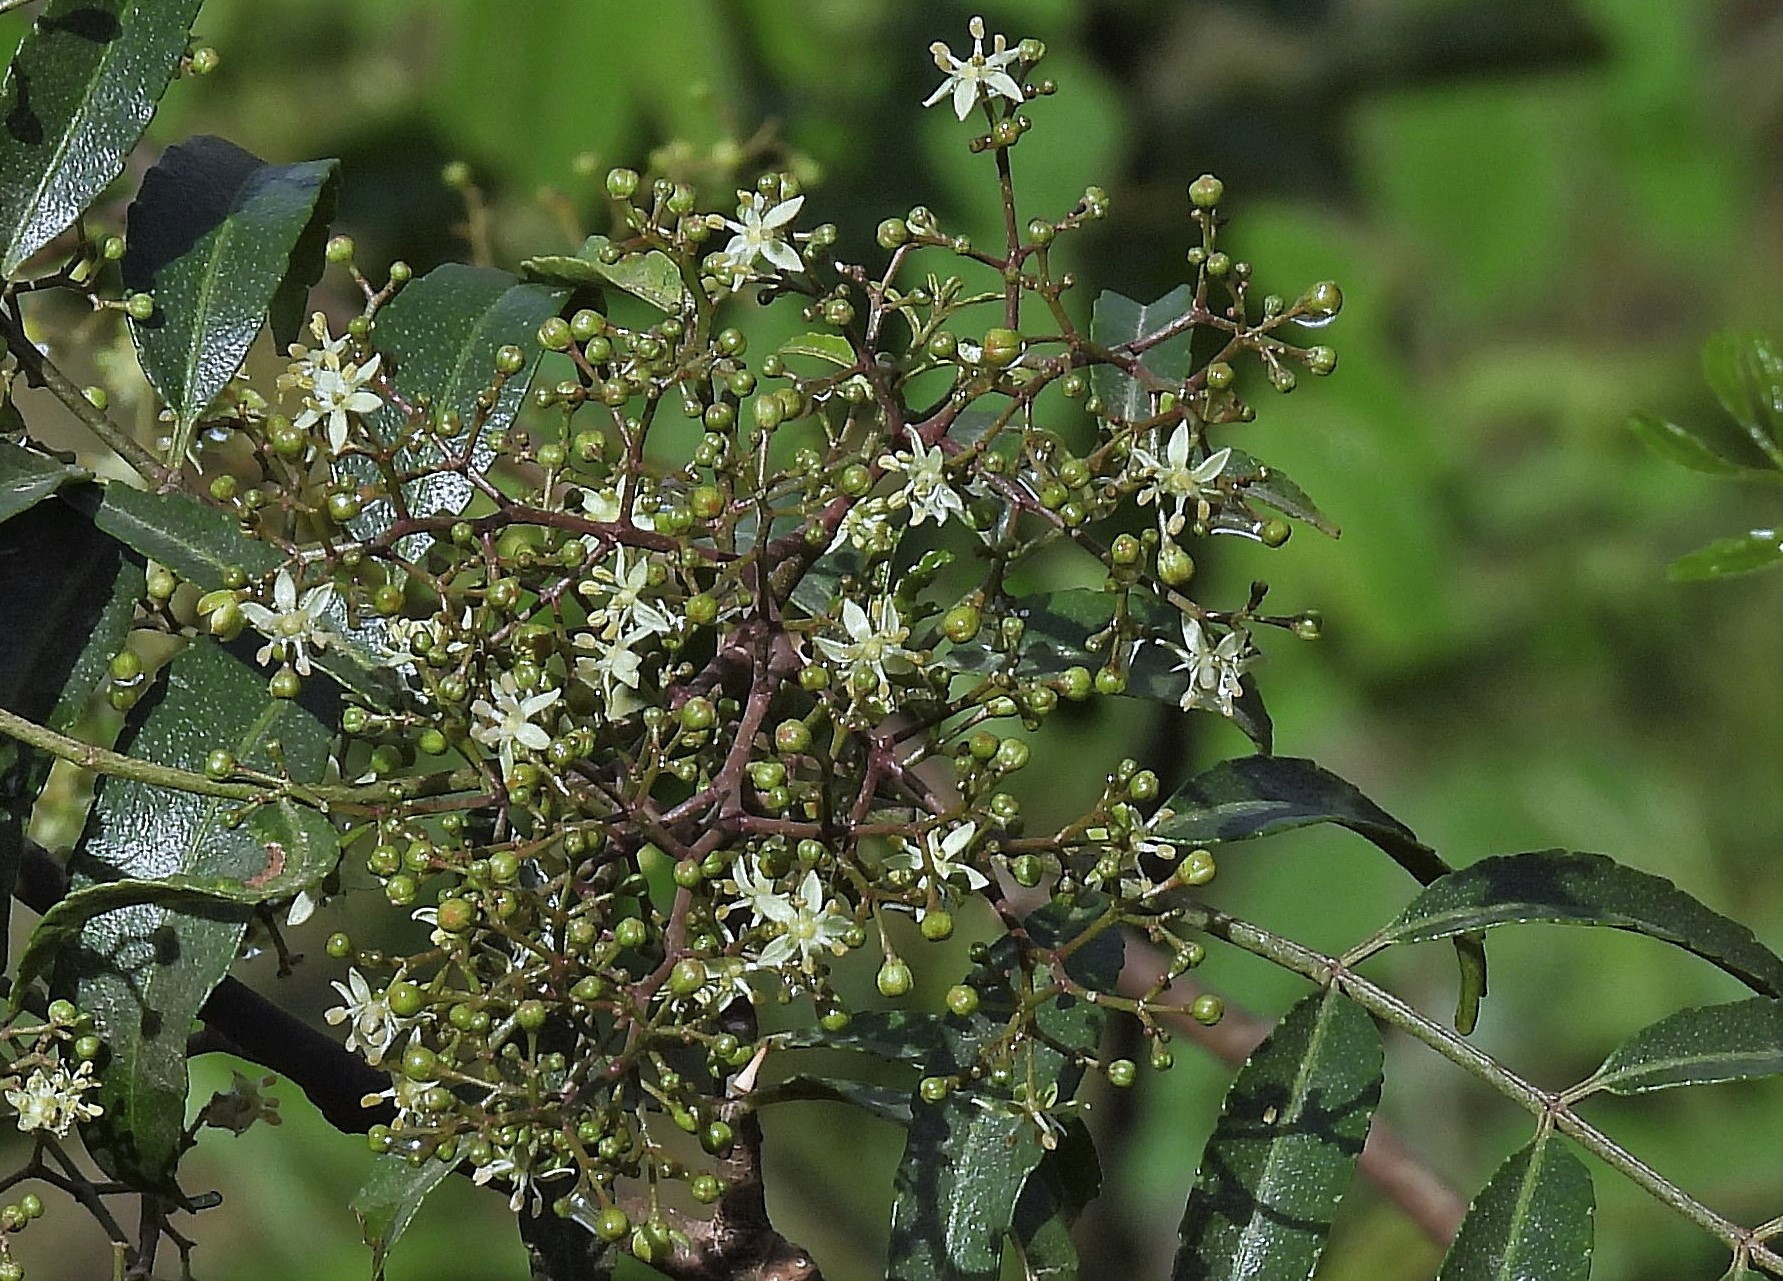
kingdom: Plantae
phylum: Tracheophyta
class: Magnoliopsida
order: Sapindales
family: Rutaceae
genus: Zanthoxylum
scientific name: Zanthoxylum coco
